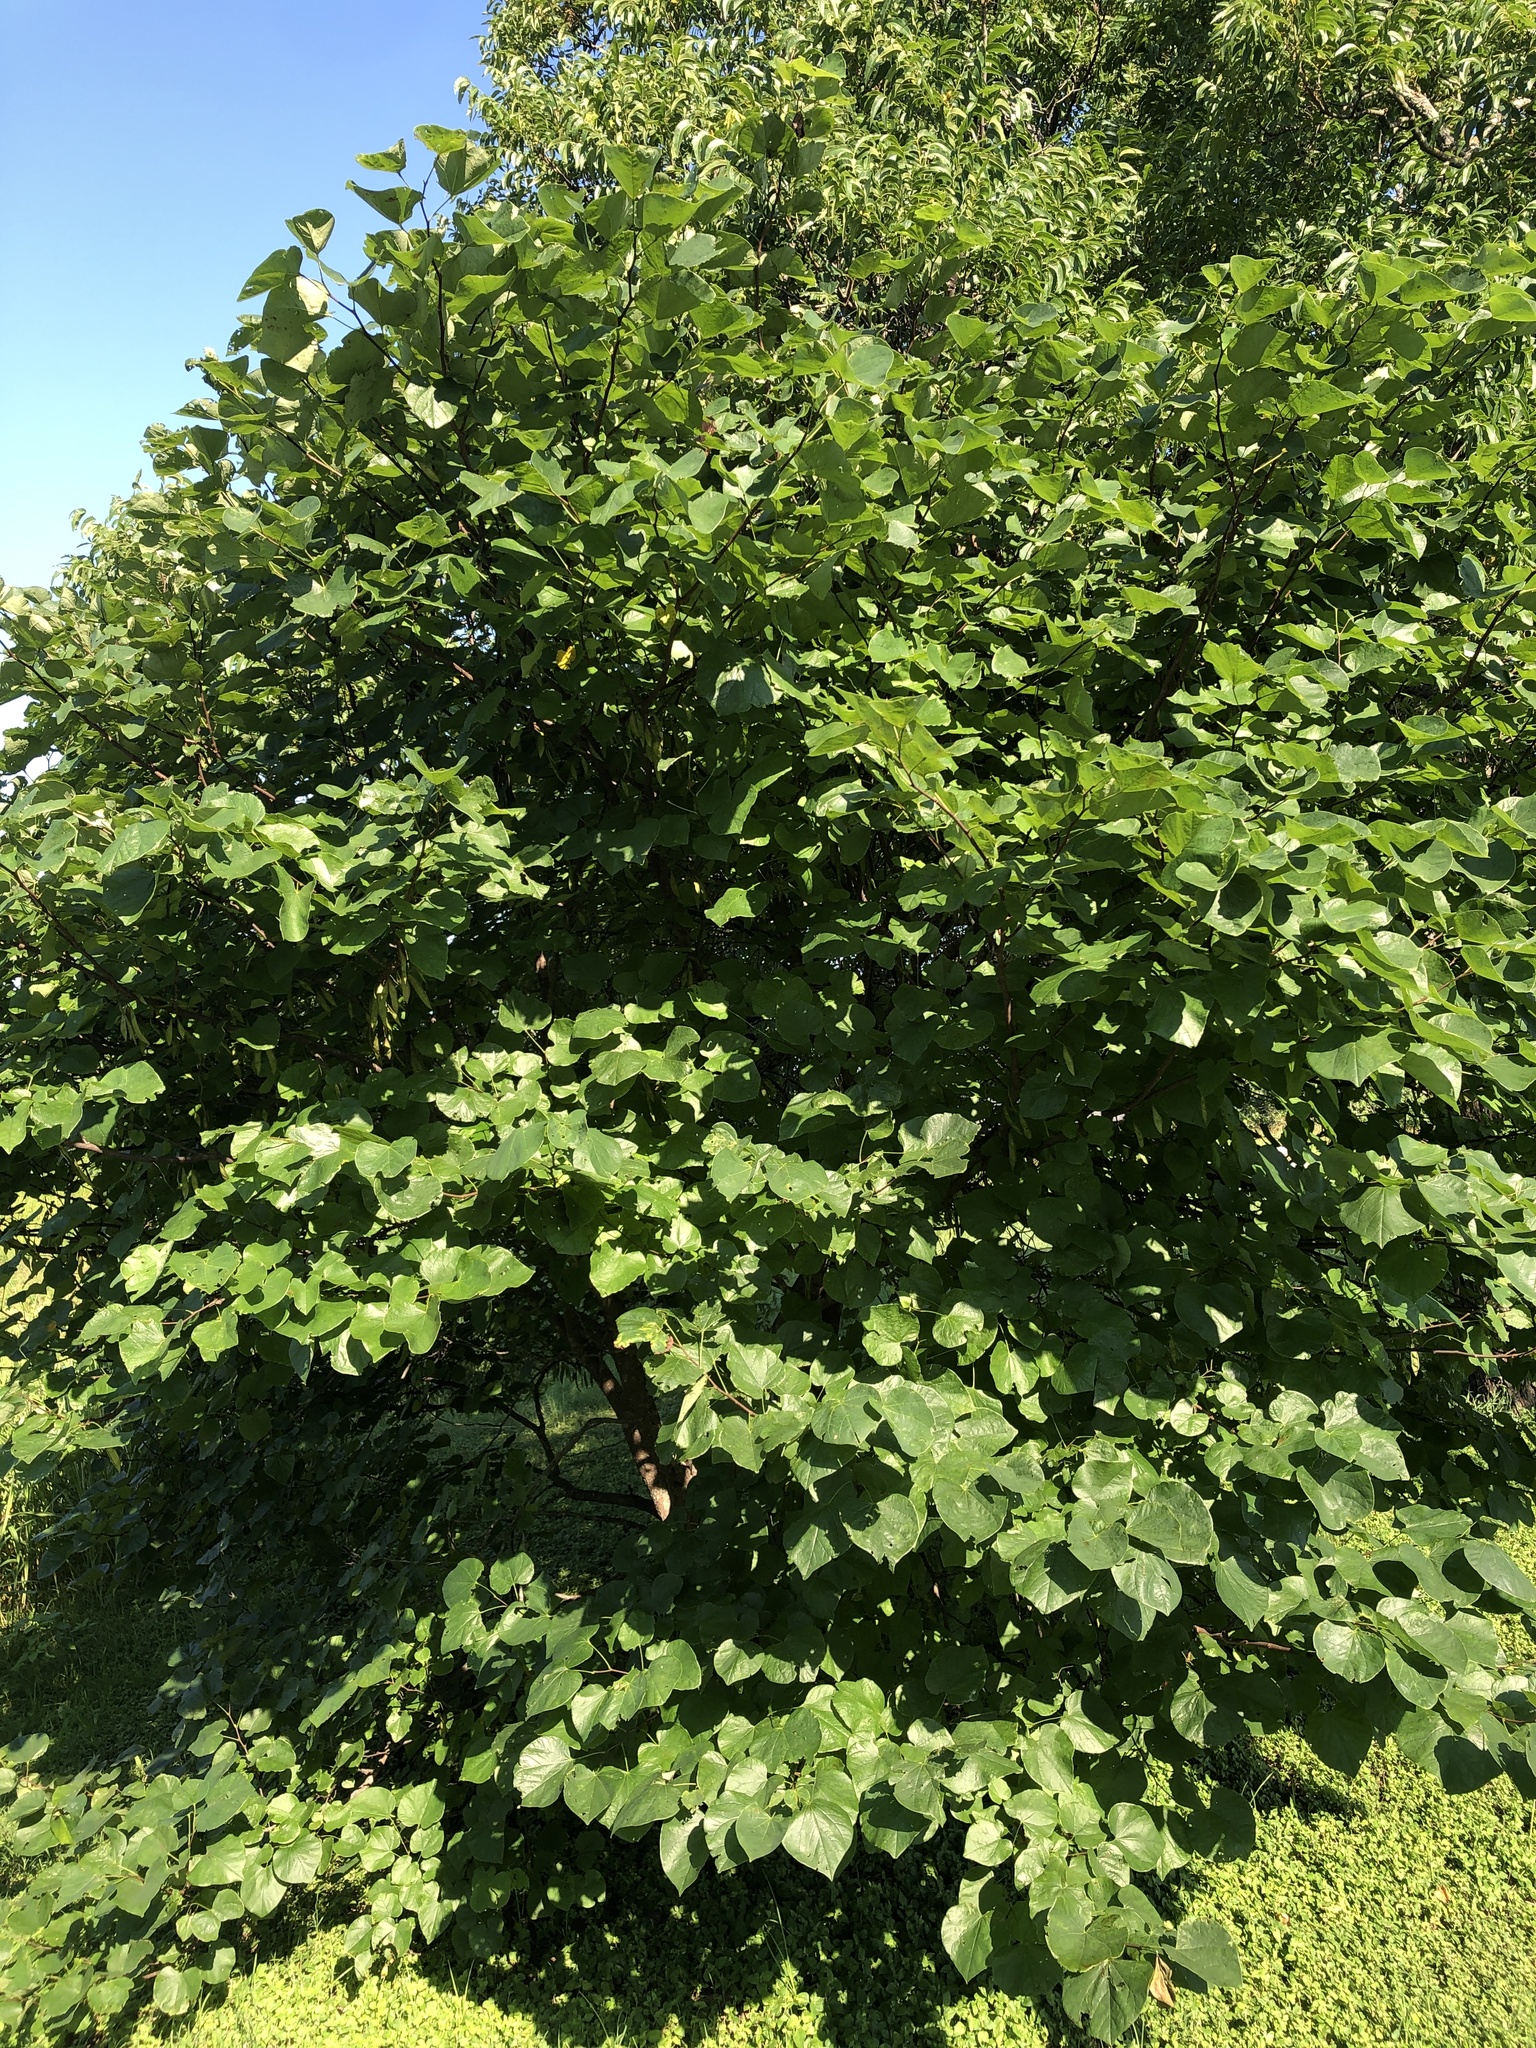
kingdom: Plantae
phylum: Tracheophyta
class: Magnoliopsida
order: Fabales
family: Fabaceae
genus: Cercis
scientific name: Cercis canadensis
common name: Eastern redbud
